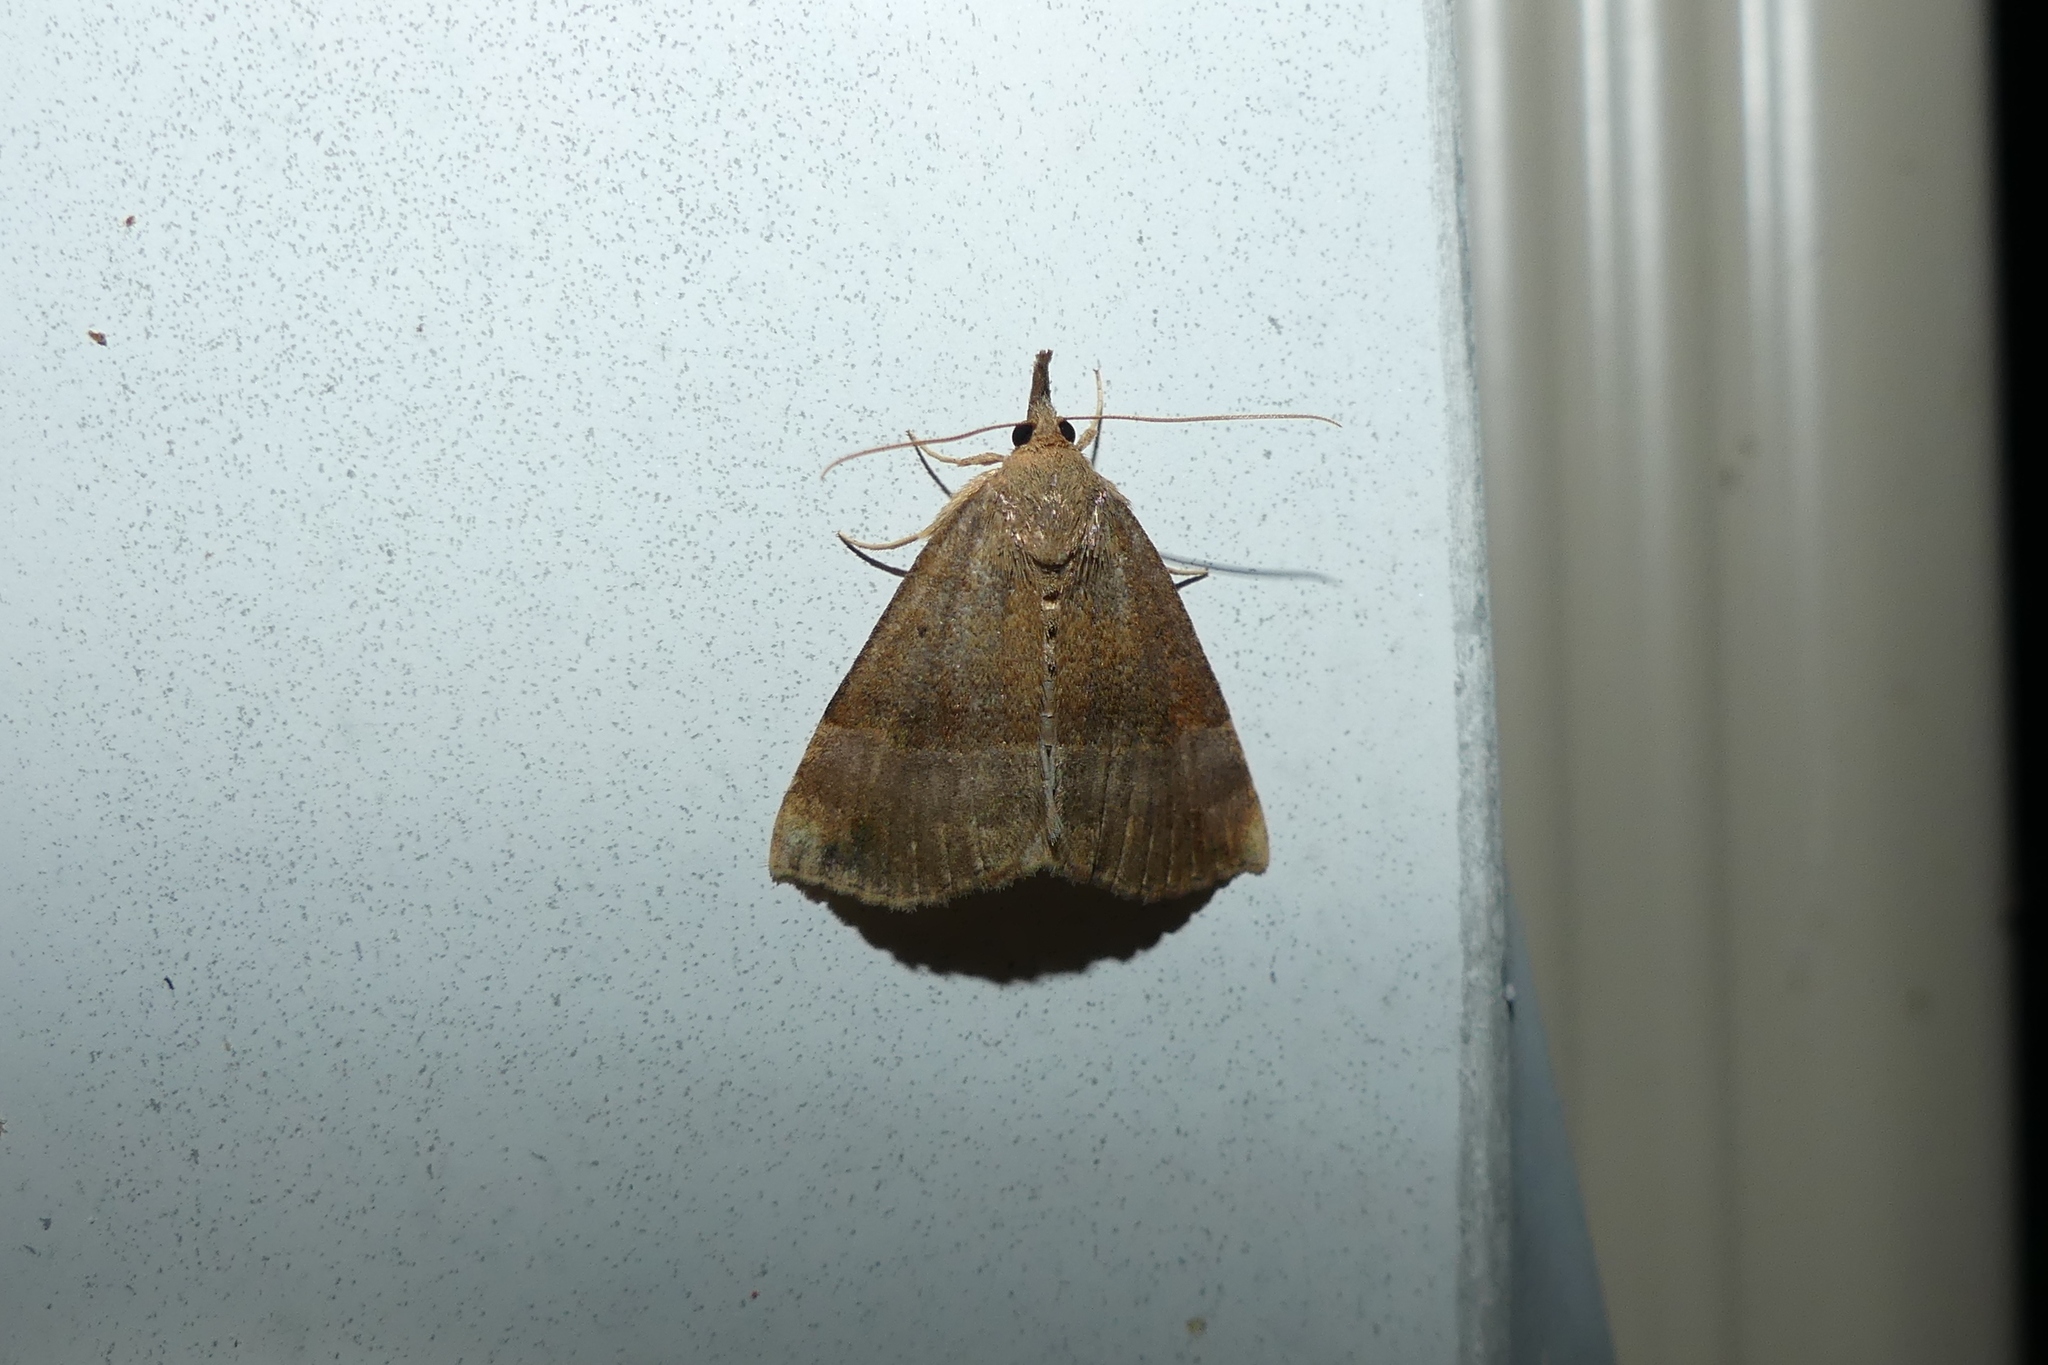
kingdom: Animalia
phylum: Arthropoda
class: Insecta
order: Lepidoptera
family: Erebidae
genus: Hypena
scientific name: Hypena madefactalis
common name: Gray-edged snout
